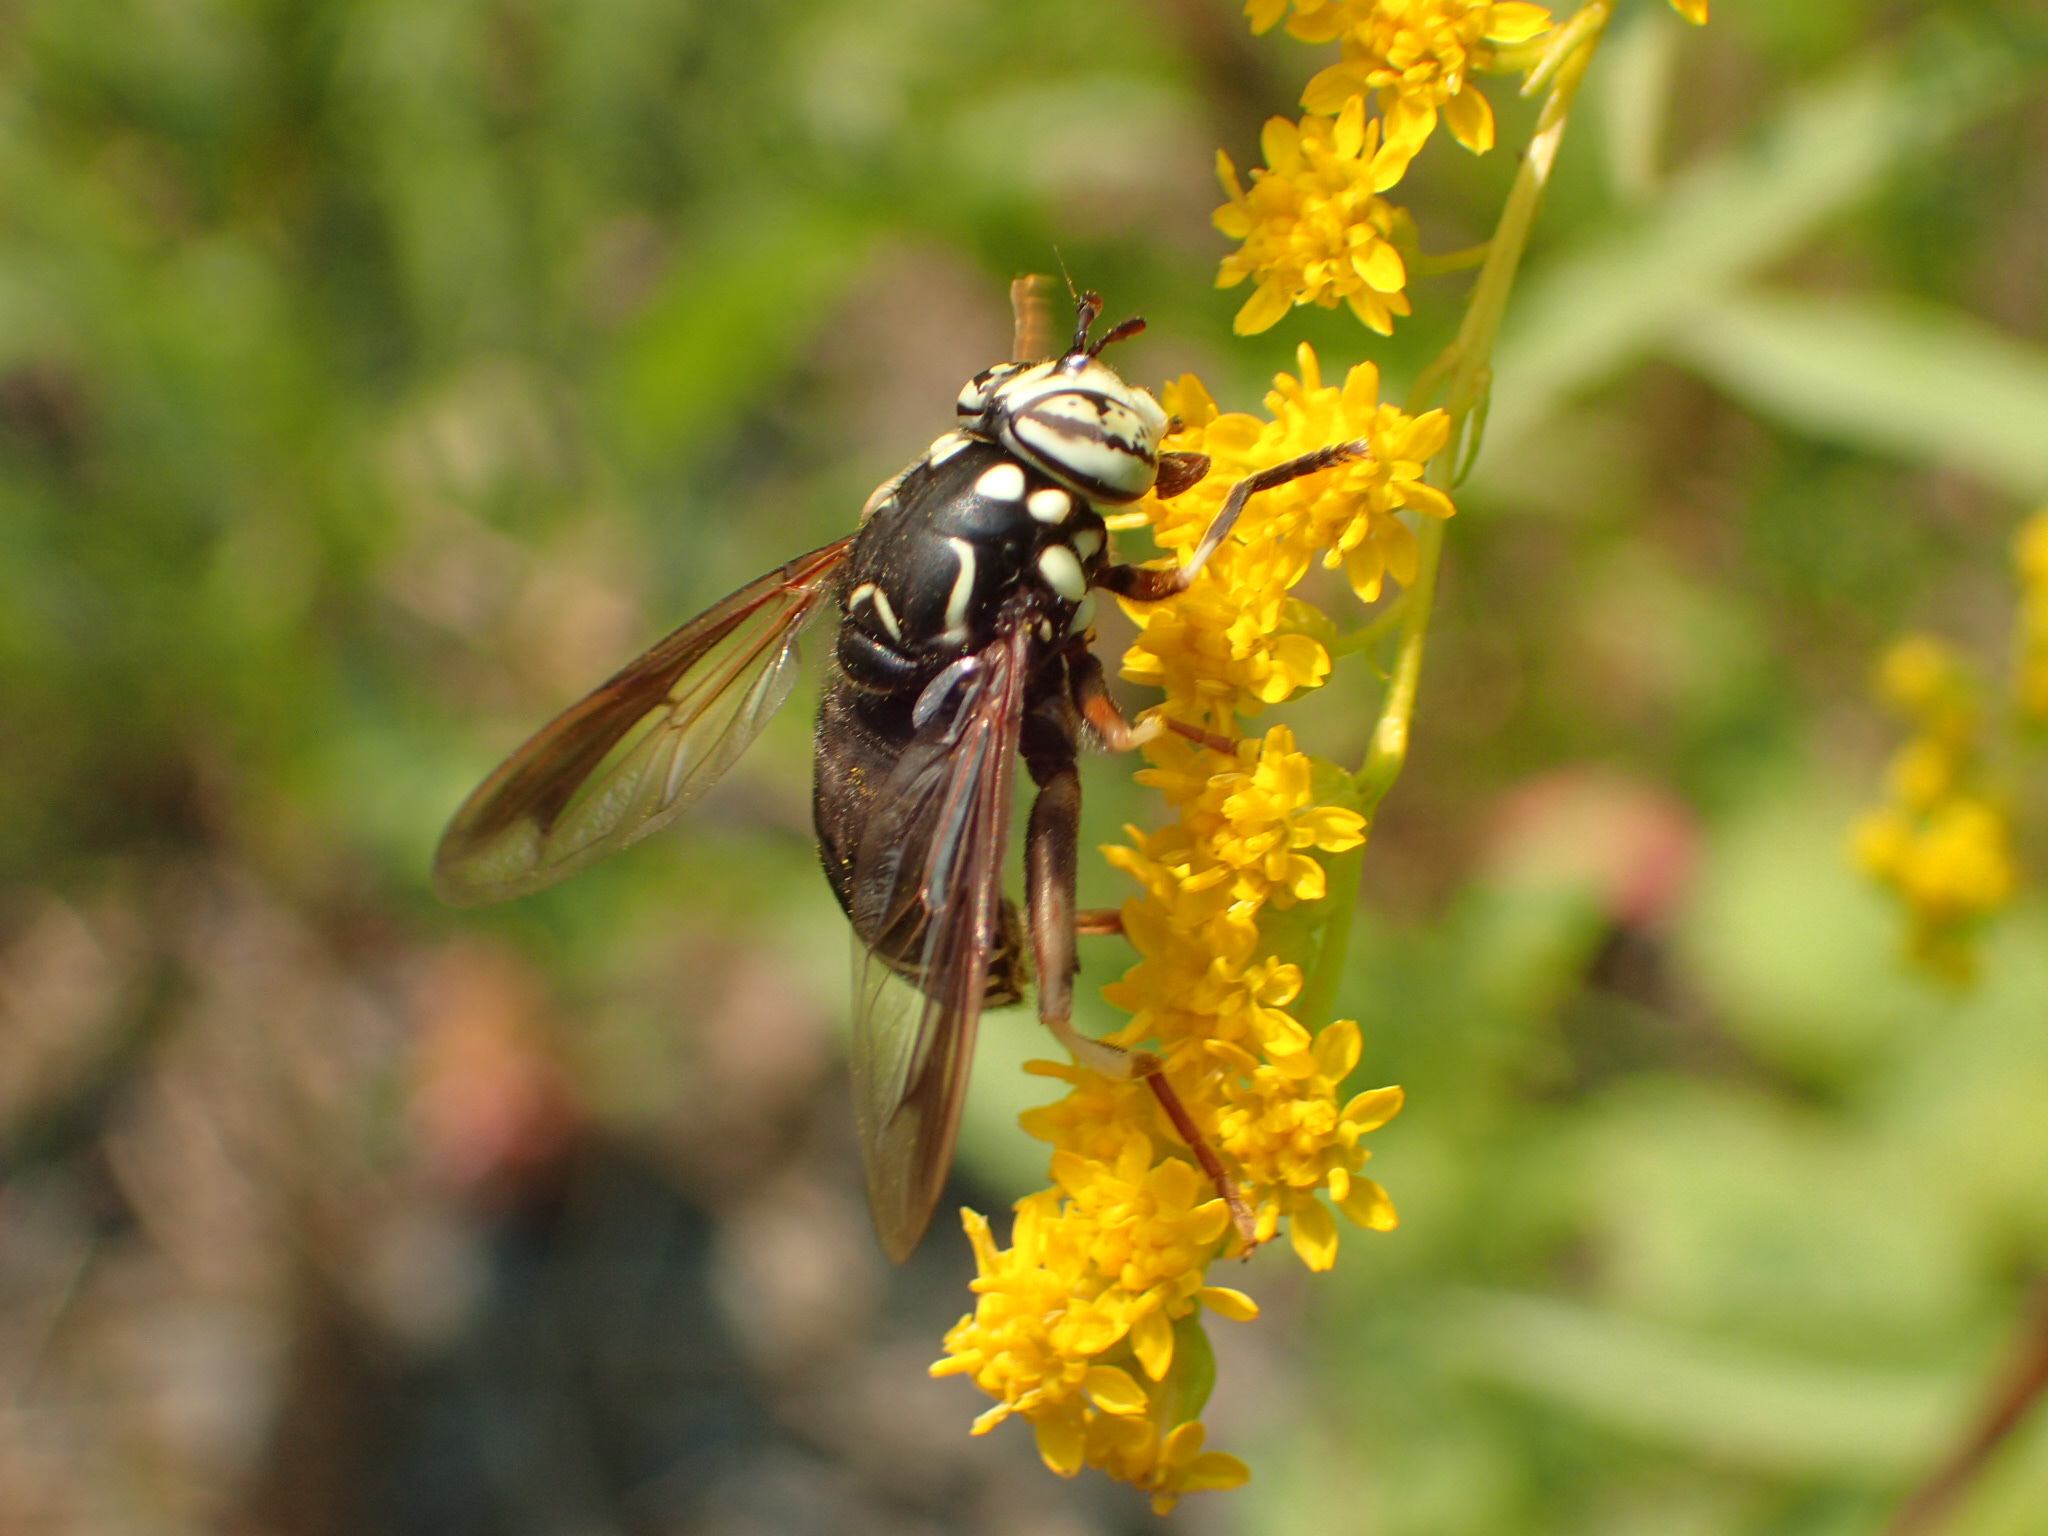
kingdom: Animalia
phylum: Arthropoda
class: Insecta
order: Diptera
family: Syrphidae
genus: Spilomyia
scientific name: Spilomyia fusca
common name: Bald-faced hornet fly
